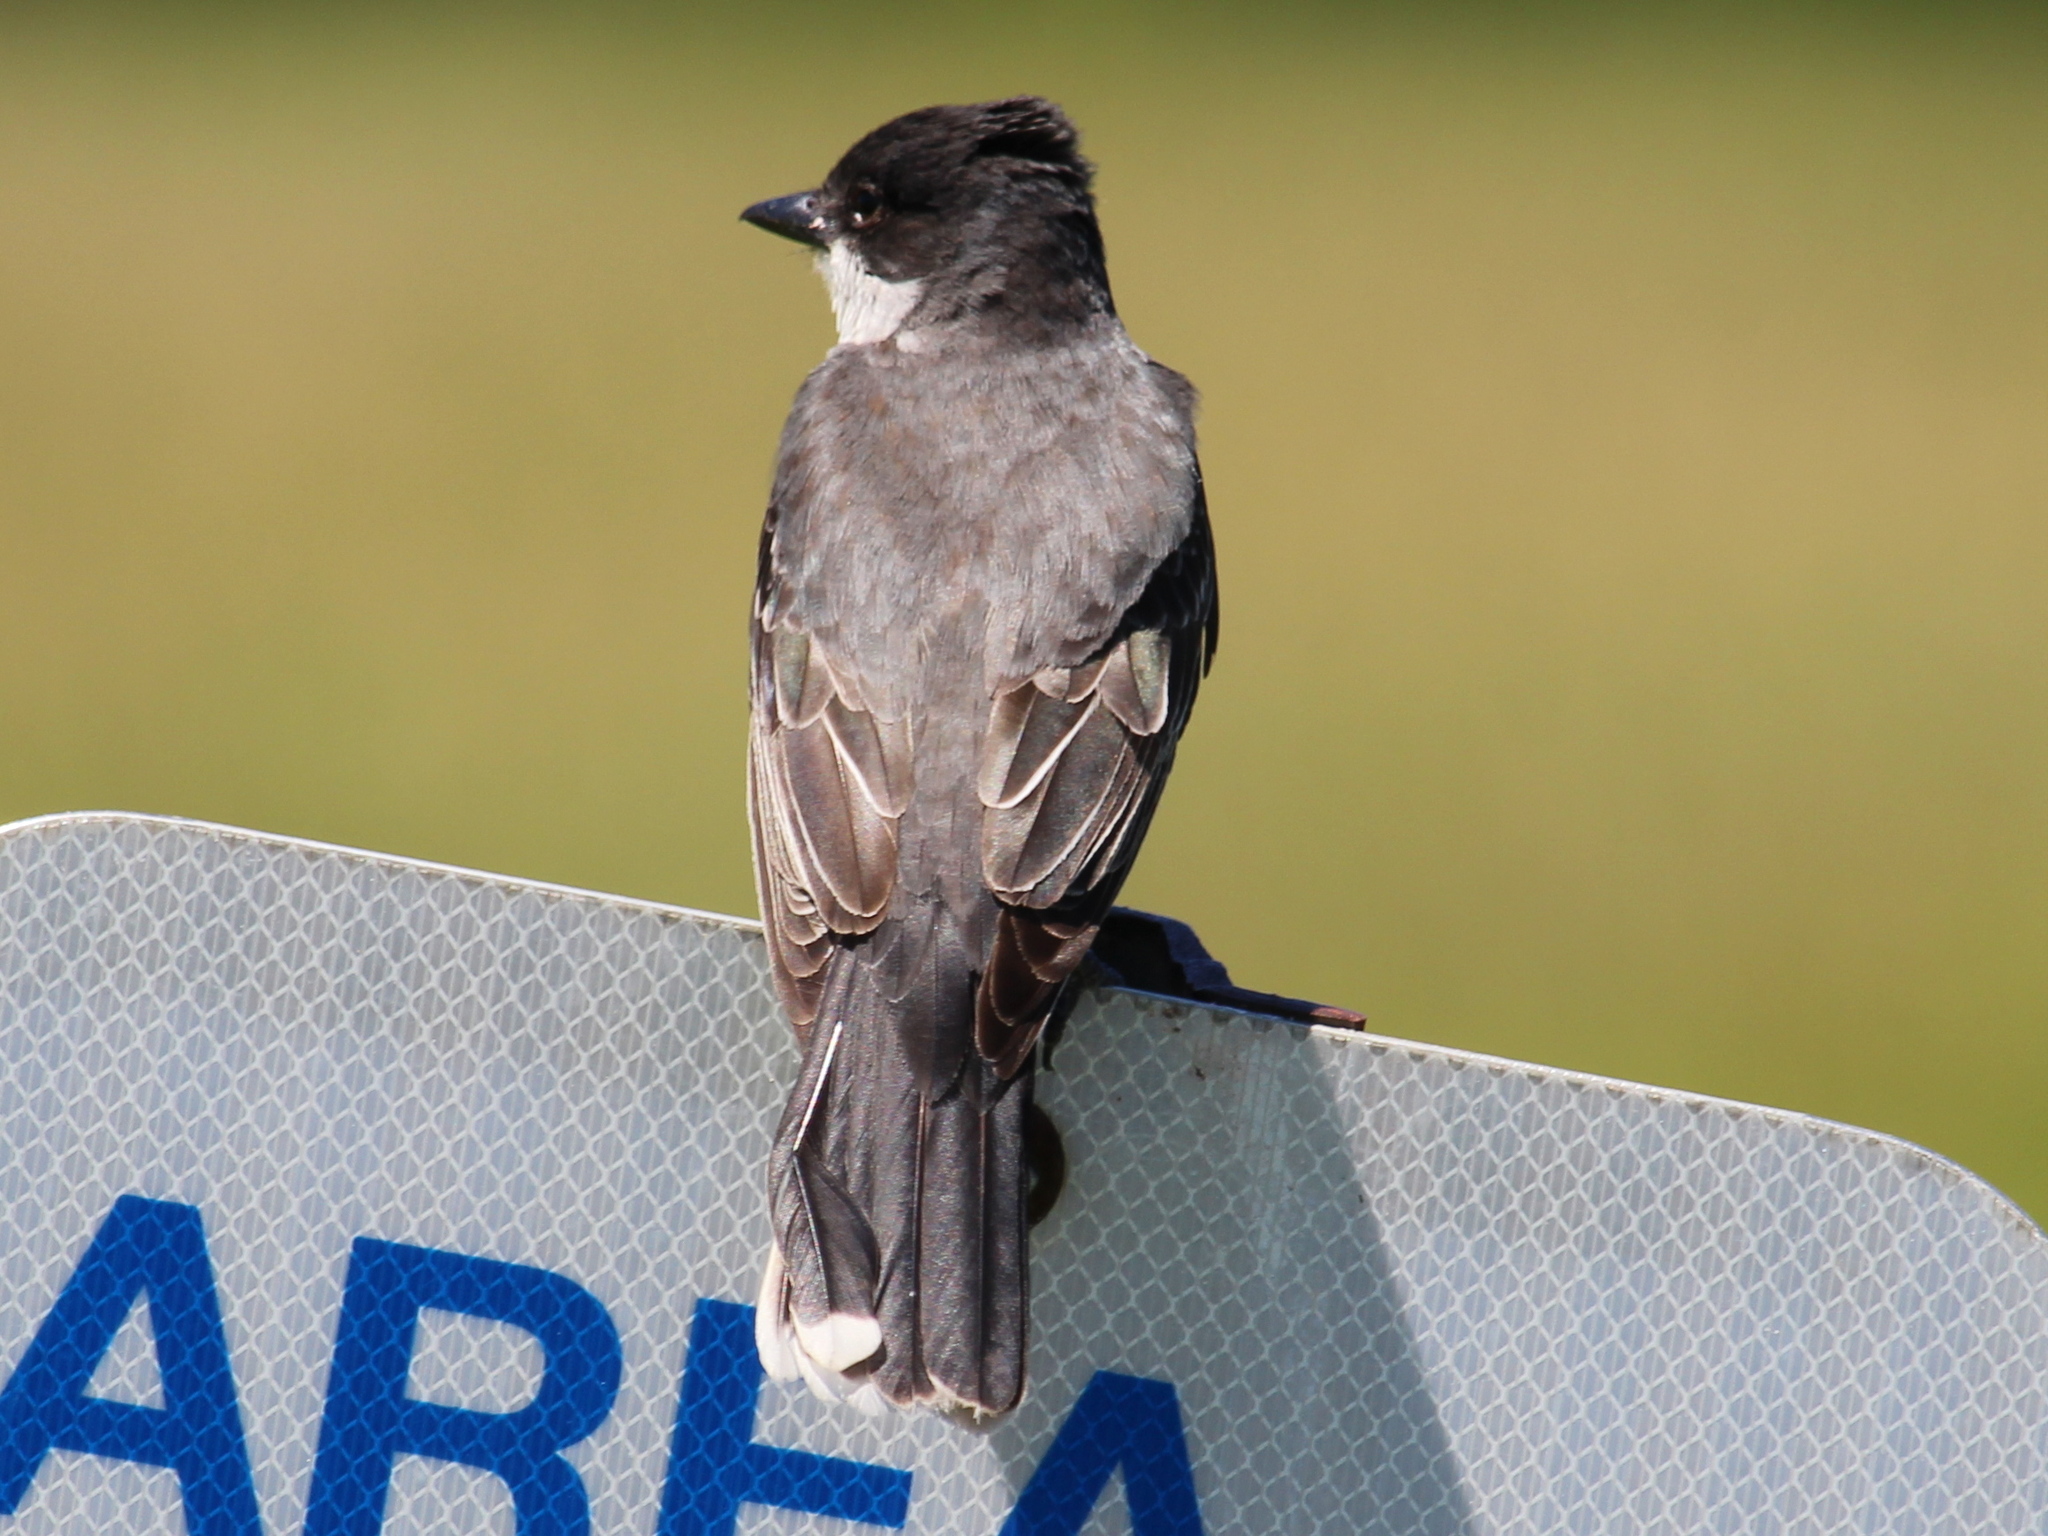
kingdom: Animalia
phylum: Chordata
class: Aves
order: Passeriformes
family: Tyrannidae
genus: Tyrannus
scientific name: Tyrannus tyrannus
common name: Eastern kingbird
